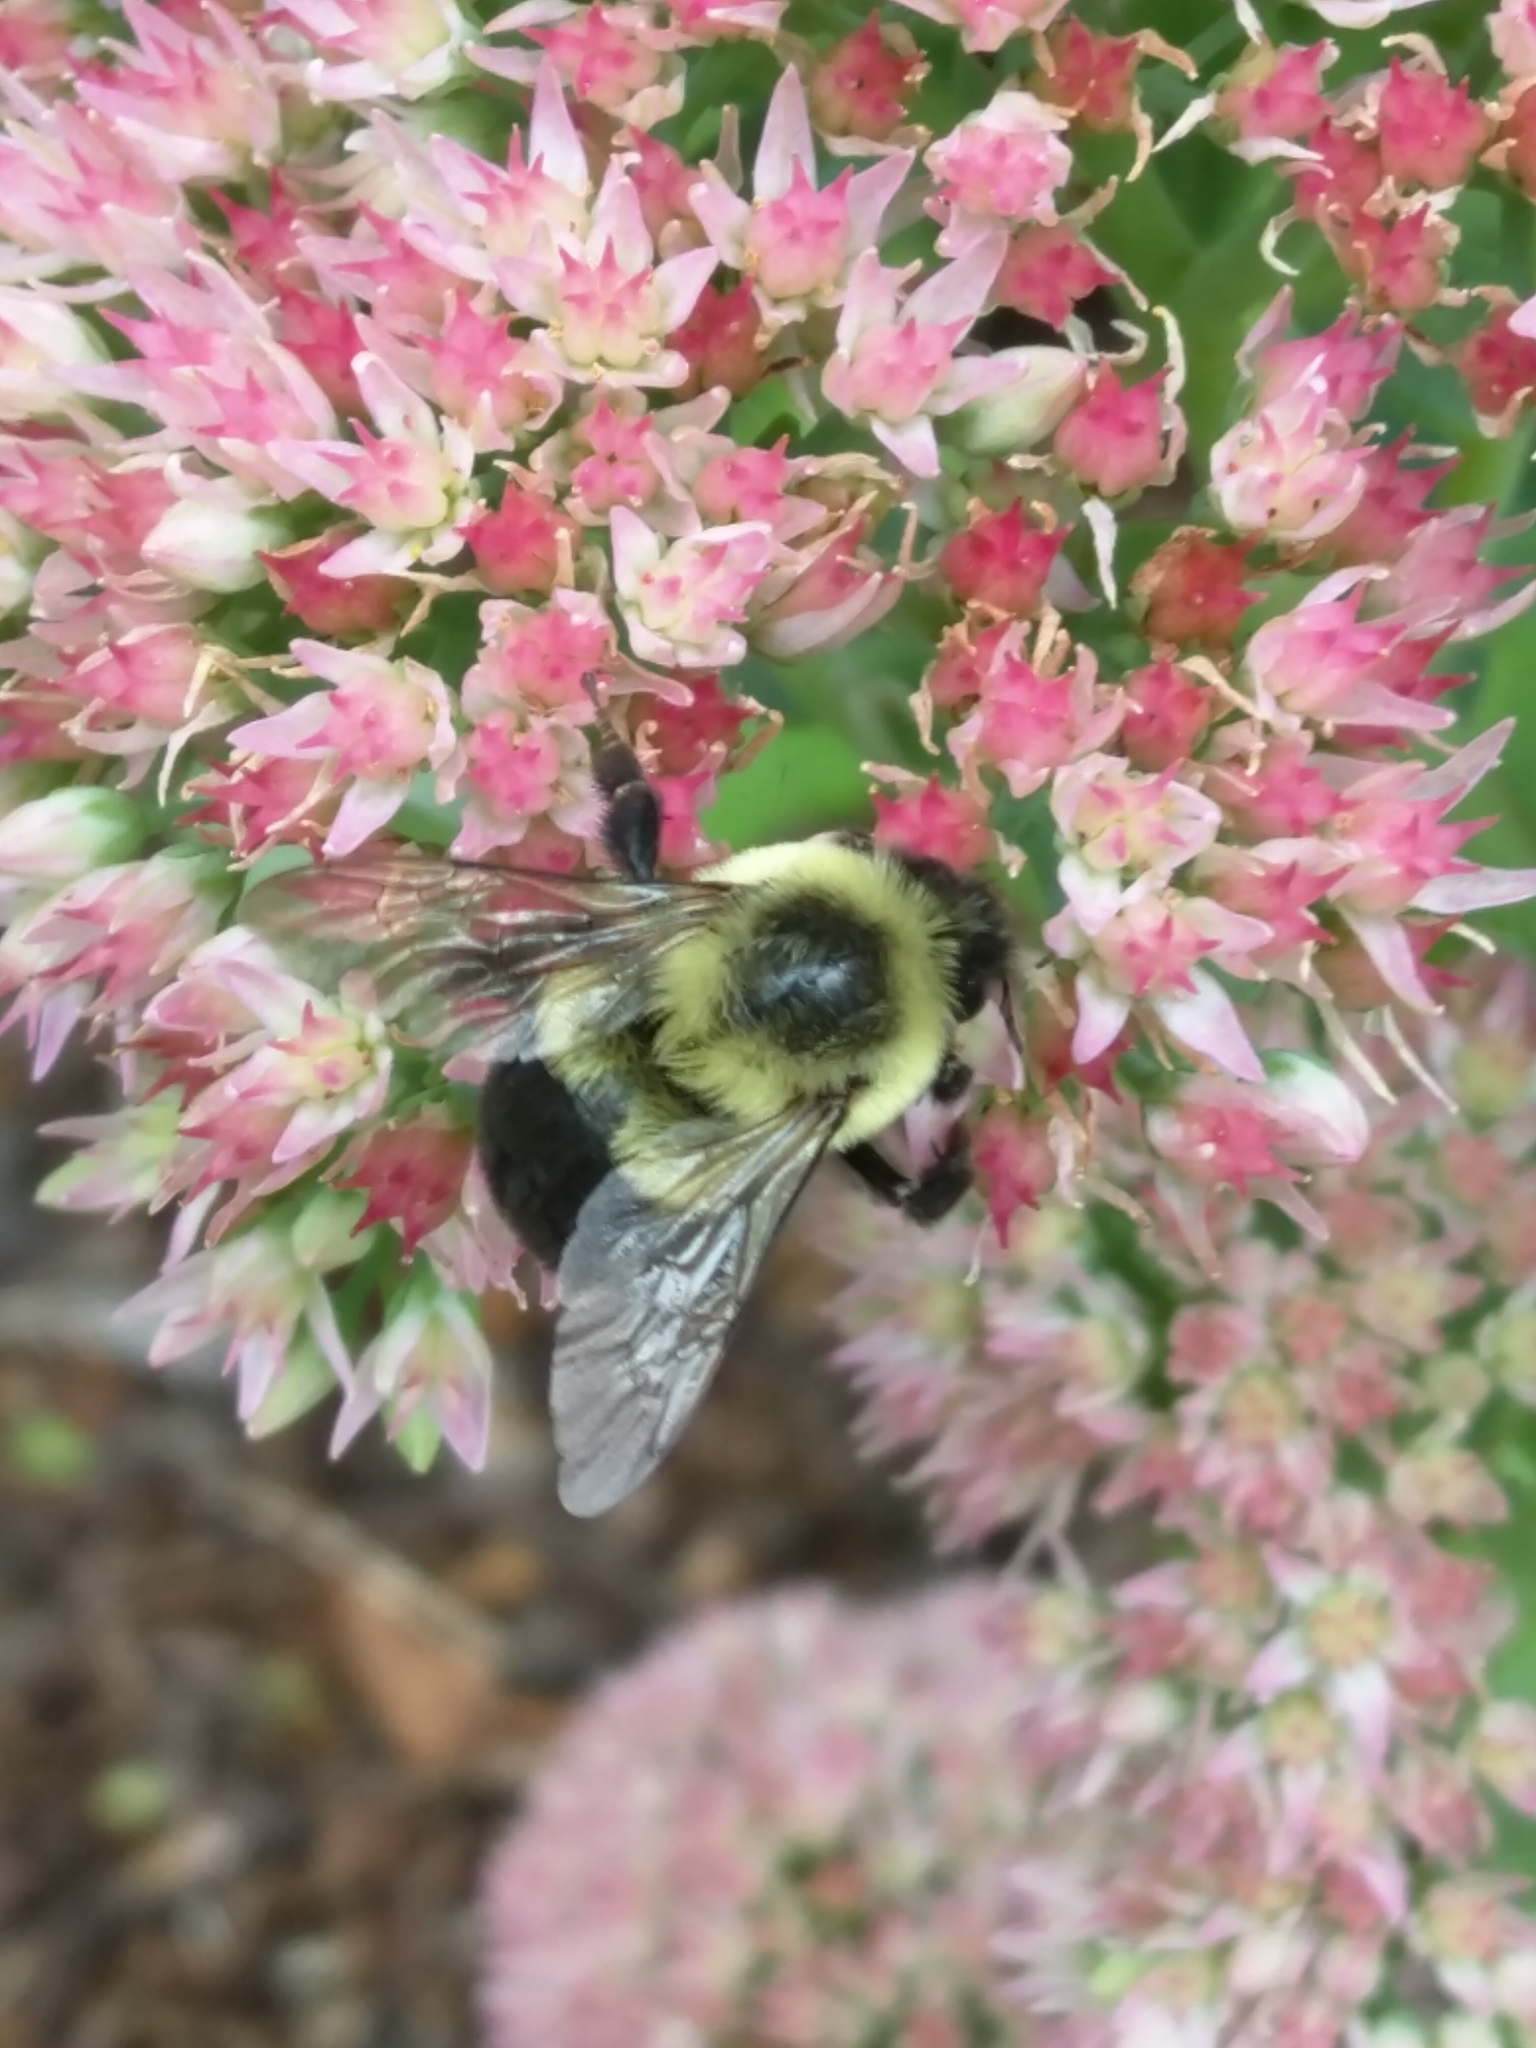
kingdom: Animalia
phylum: Arthropoda
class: Insecta
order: Hymenoptera
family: Apidae
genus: Bombus
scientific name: Bombus impatiens
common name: Common eastern bumble bee
